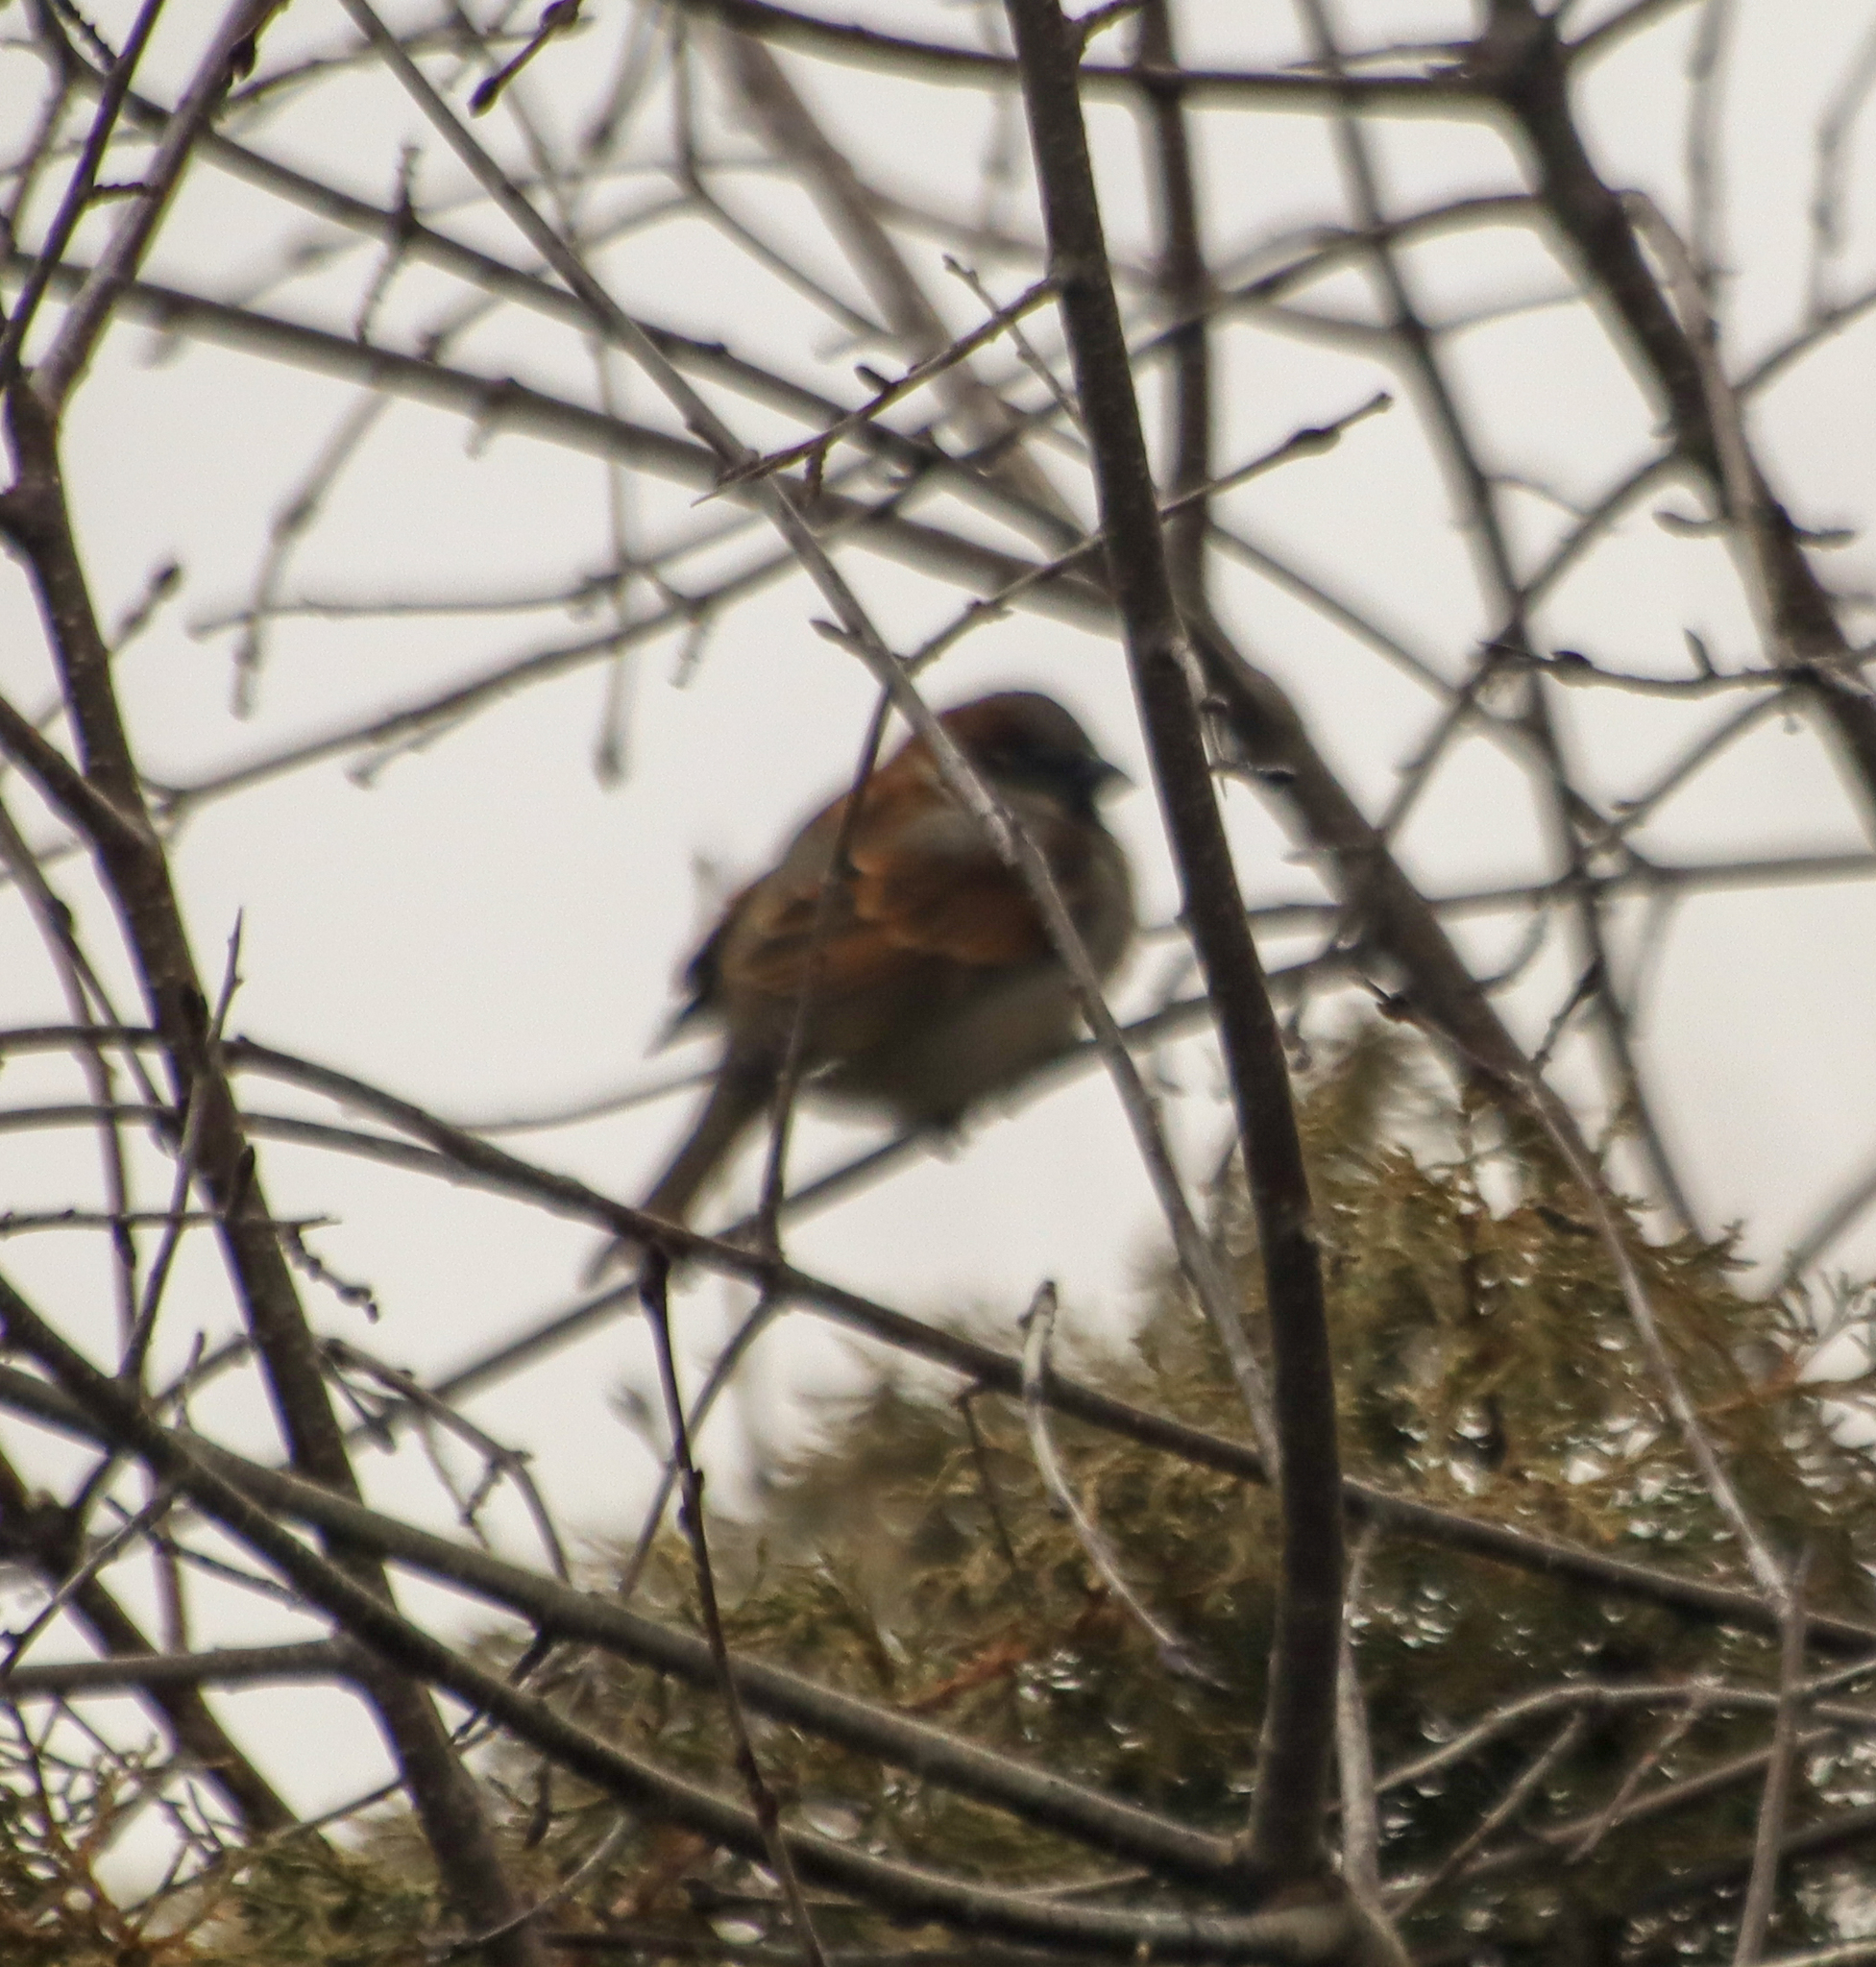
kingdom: Animalia
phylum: Chordata
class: Aves
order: Passeriformes
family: Passeridae
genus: Passer
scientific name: Passer domesticus
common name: House sparrow
